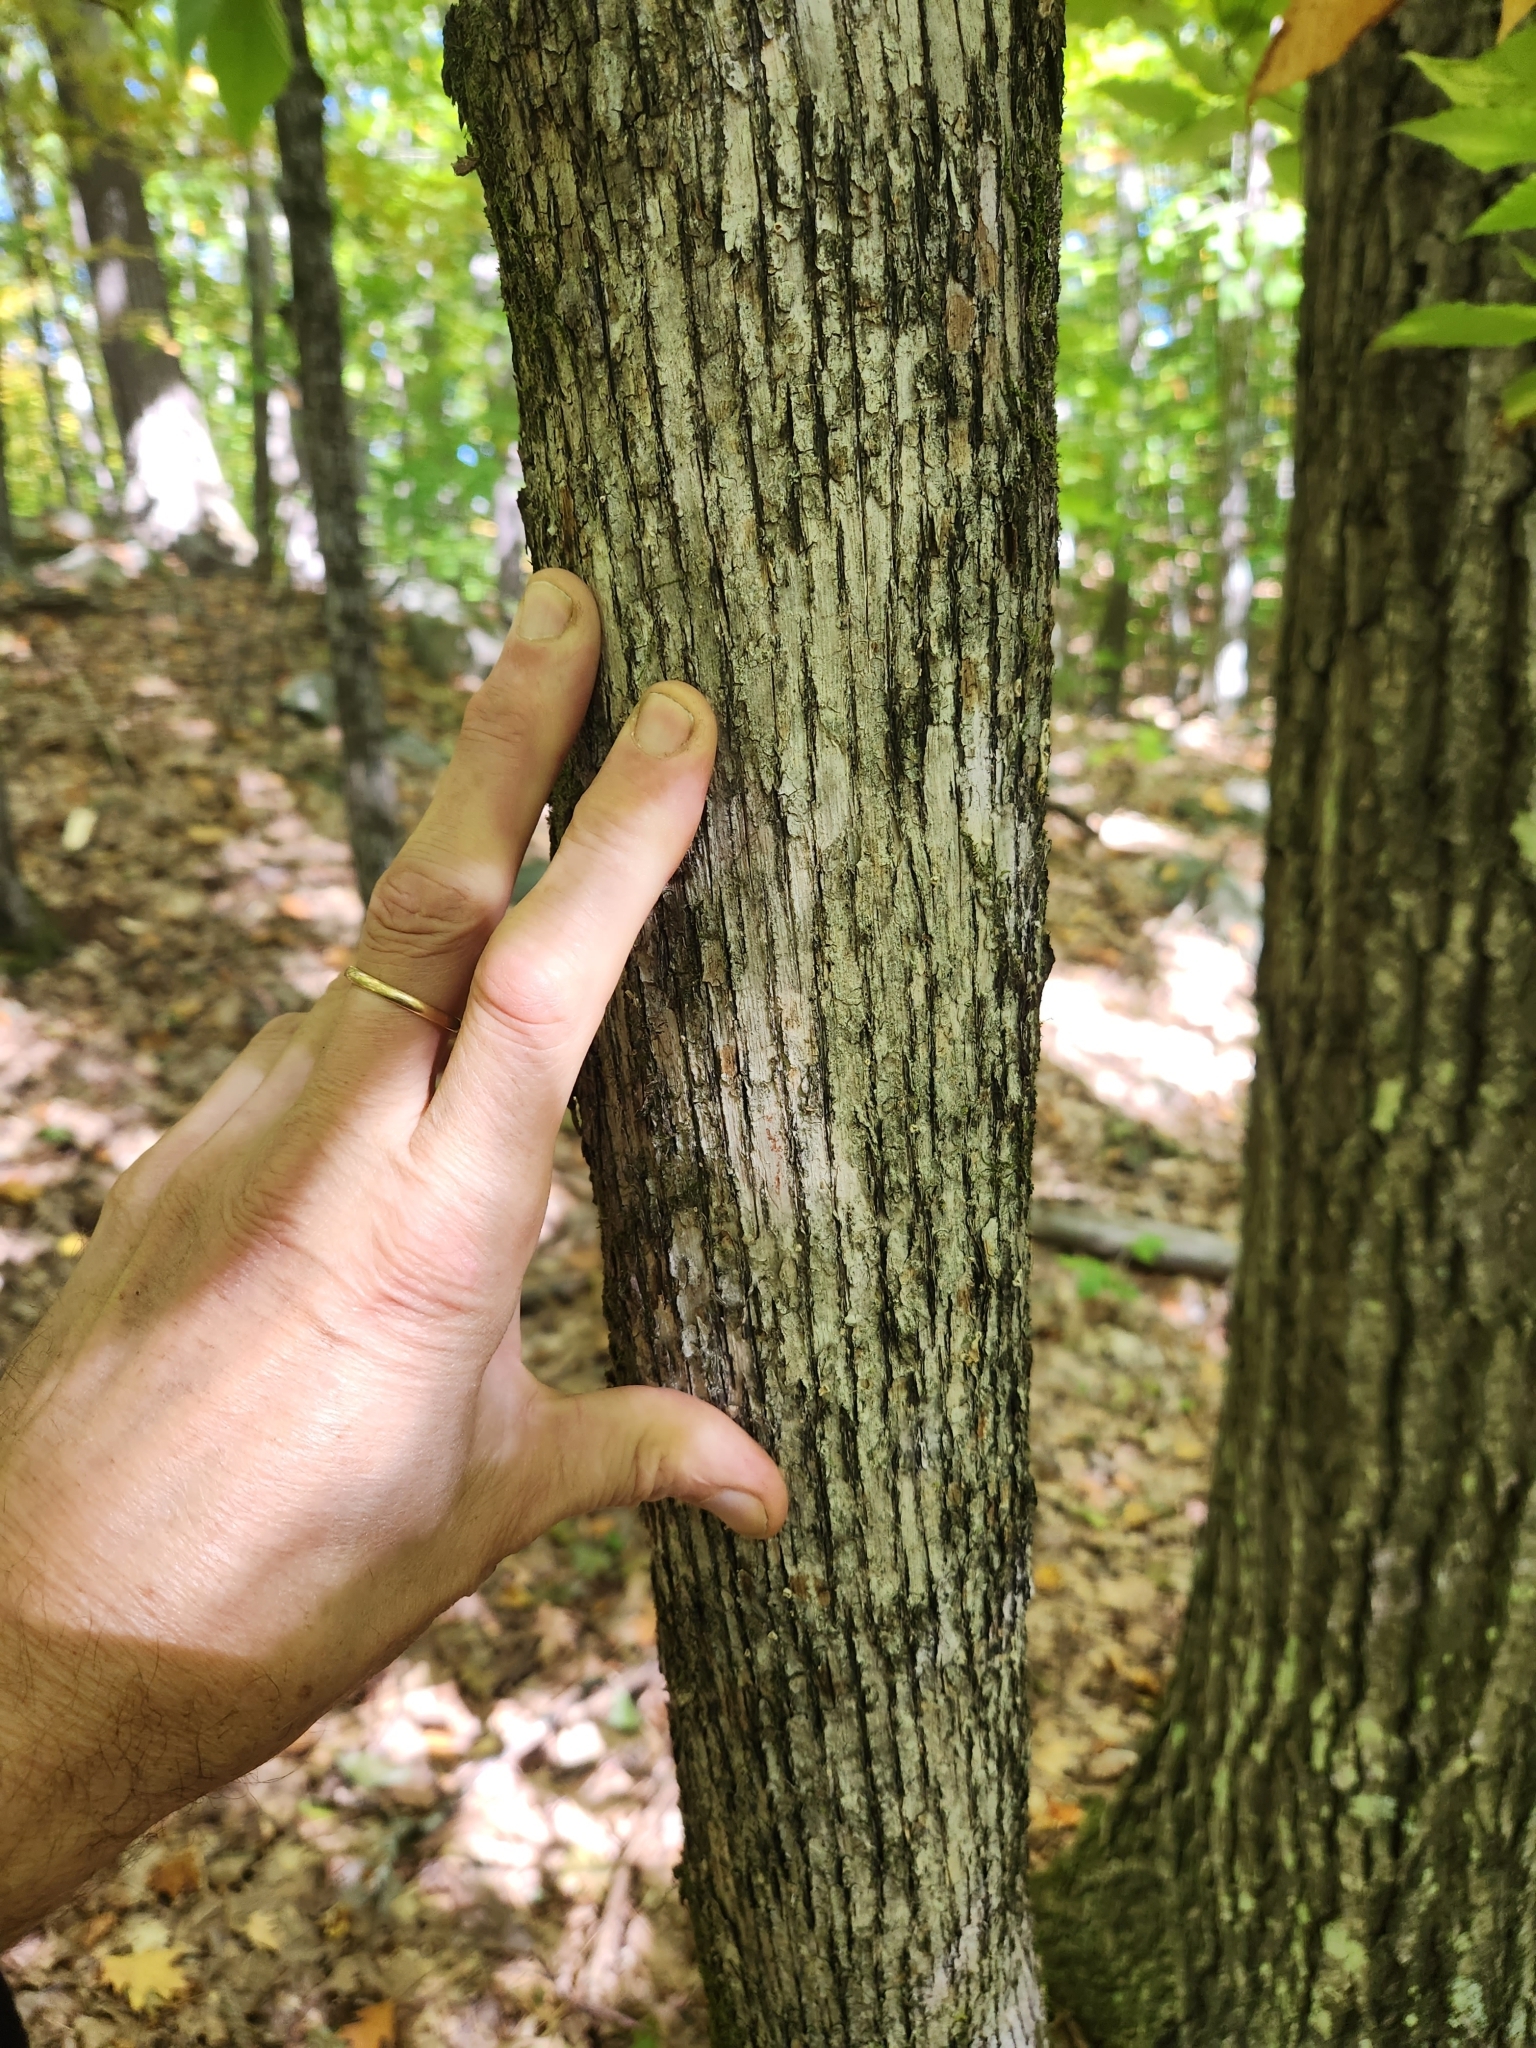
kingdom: Plantae
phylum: Tracheophyta
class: Magnoliopsida
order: Fagales
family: Betulaceae
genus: Ostrya
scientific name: Ostrya virginiana
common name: Ironwood
